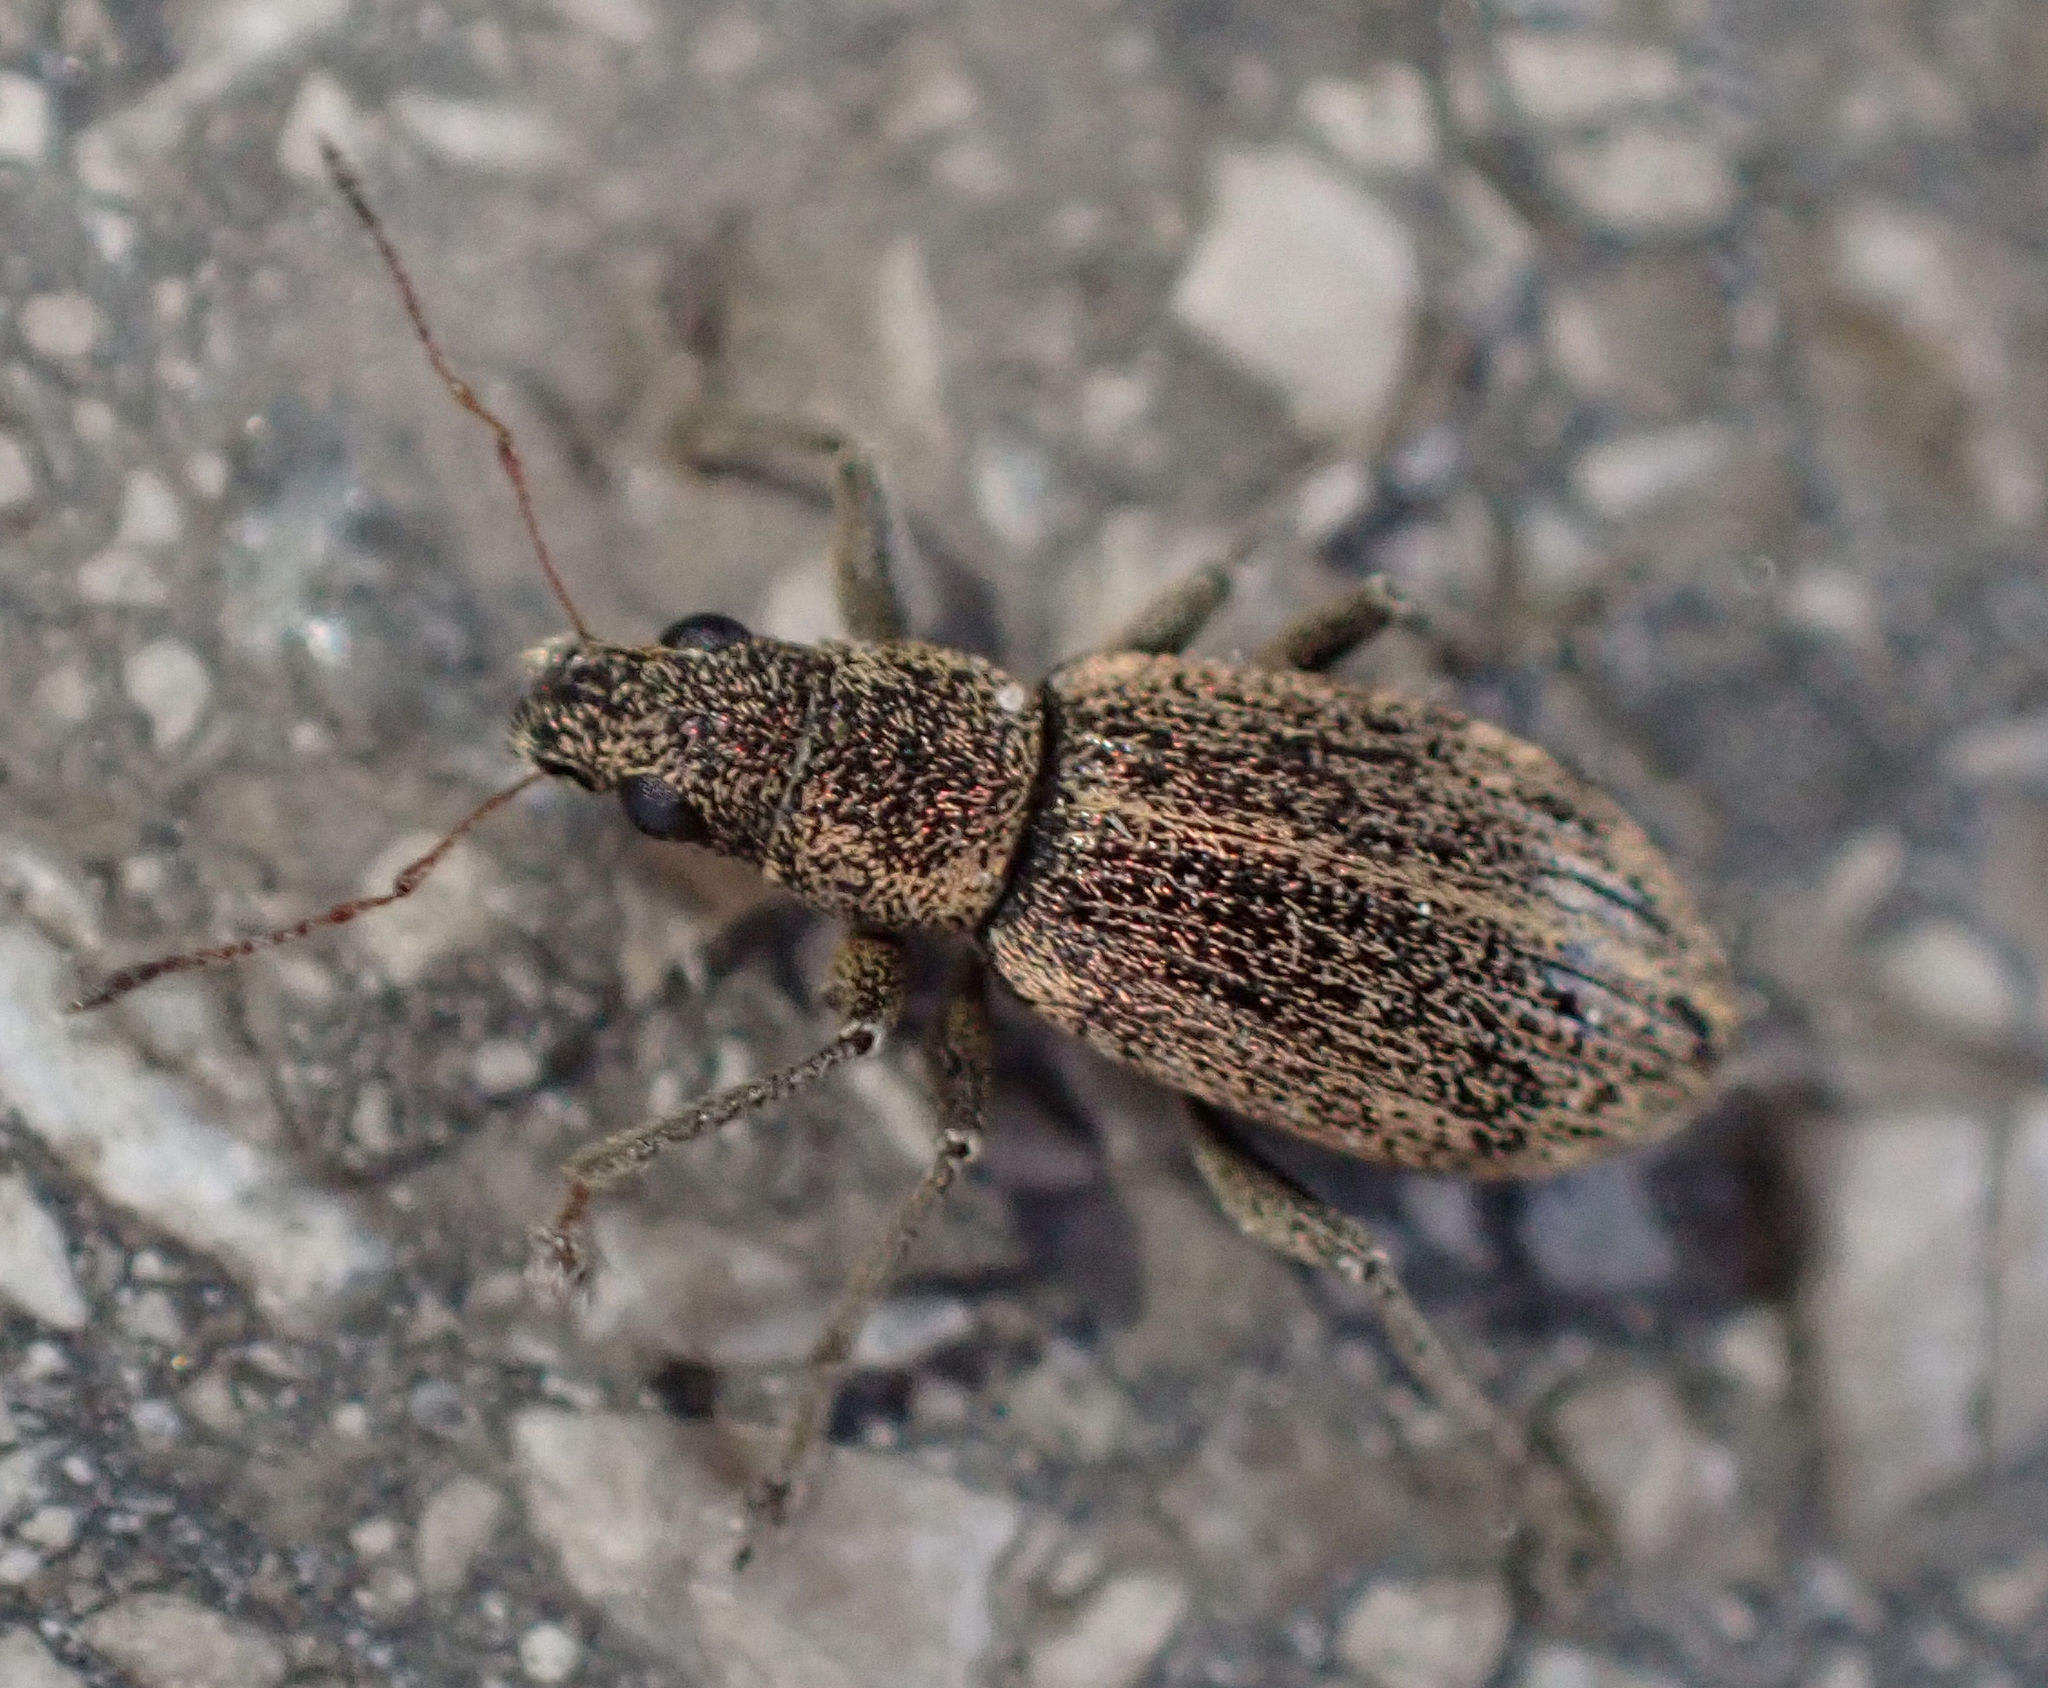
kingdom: Animalia
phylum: Arthropoda
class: Insecta
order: Coleoptera
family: Curculionidae
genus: Polydrusus
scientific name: Polydrusus inustus
